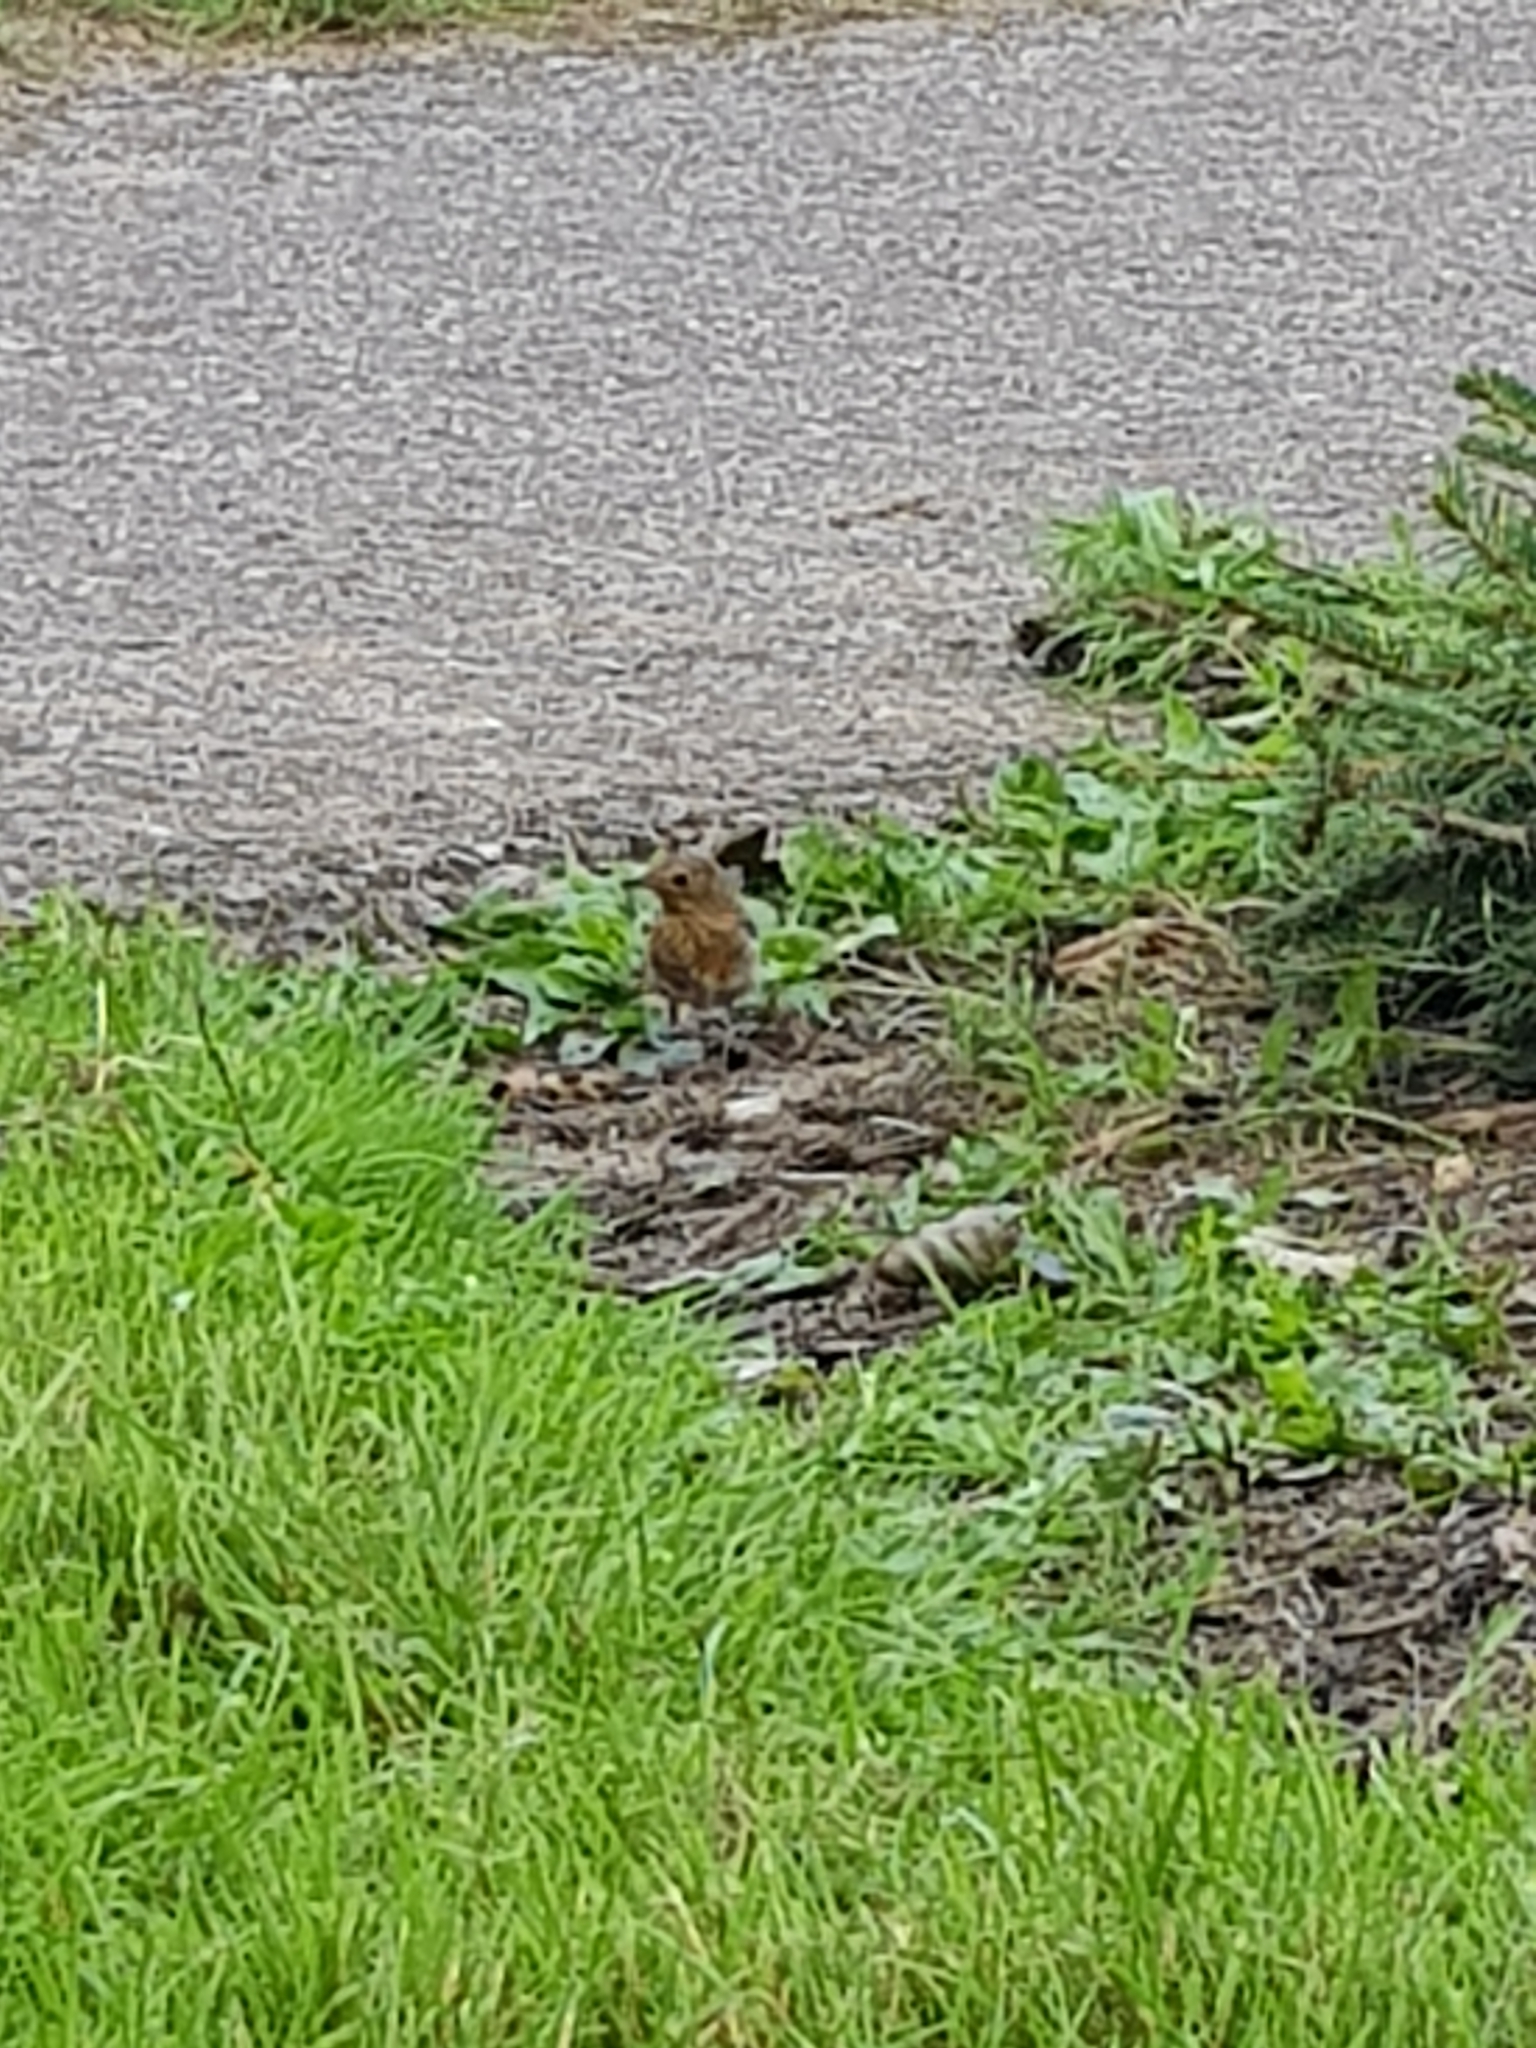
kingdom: Animalia
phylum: Chordata
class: Aves
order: Passeriformes
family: Muscicapidae
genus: Erithacus
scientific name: Erithacus rubecula
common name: European robin
